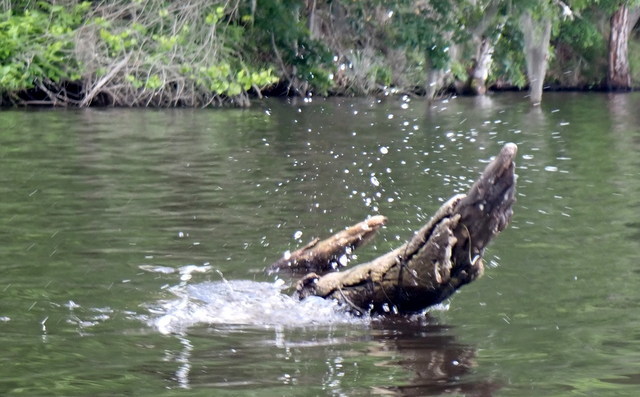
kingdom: Animalia
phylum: Chordata
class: Testudines
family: Emydidae
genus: Pseudemys
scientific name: Pseudemys concinna
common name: Eastern river cooter
